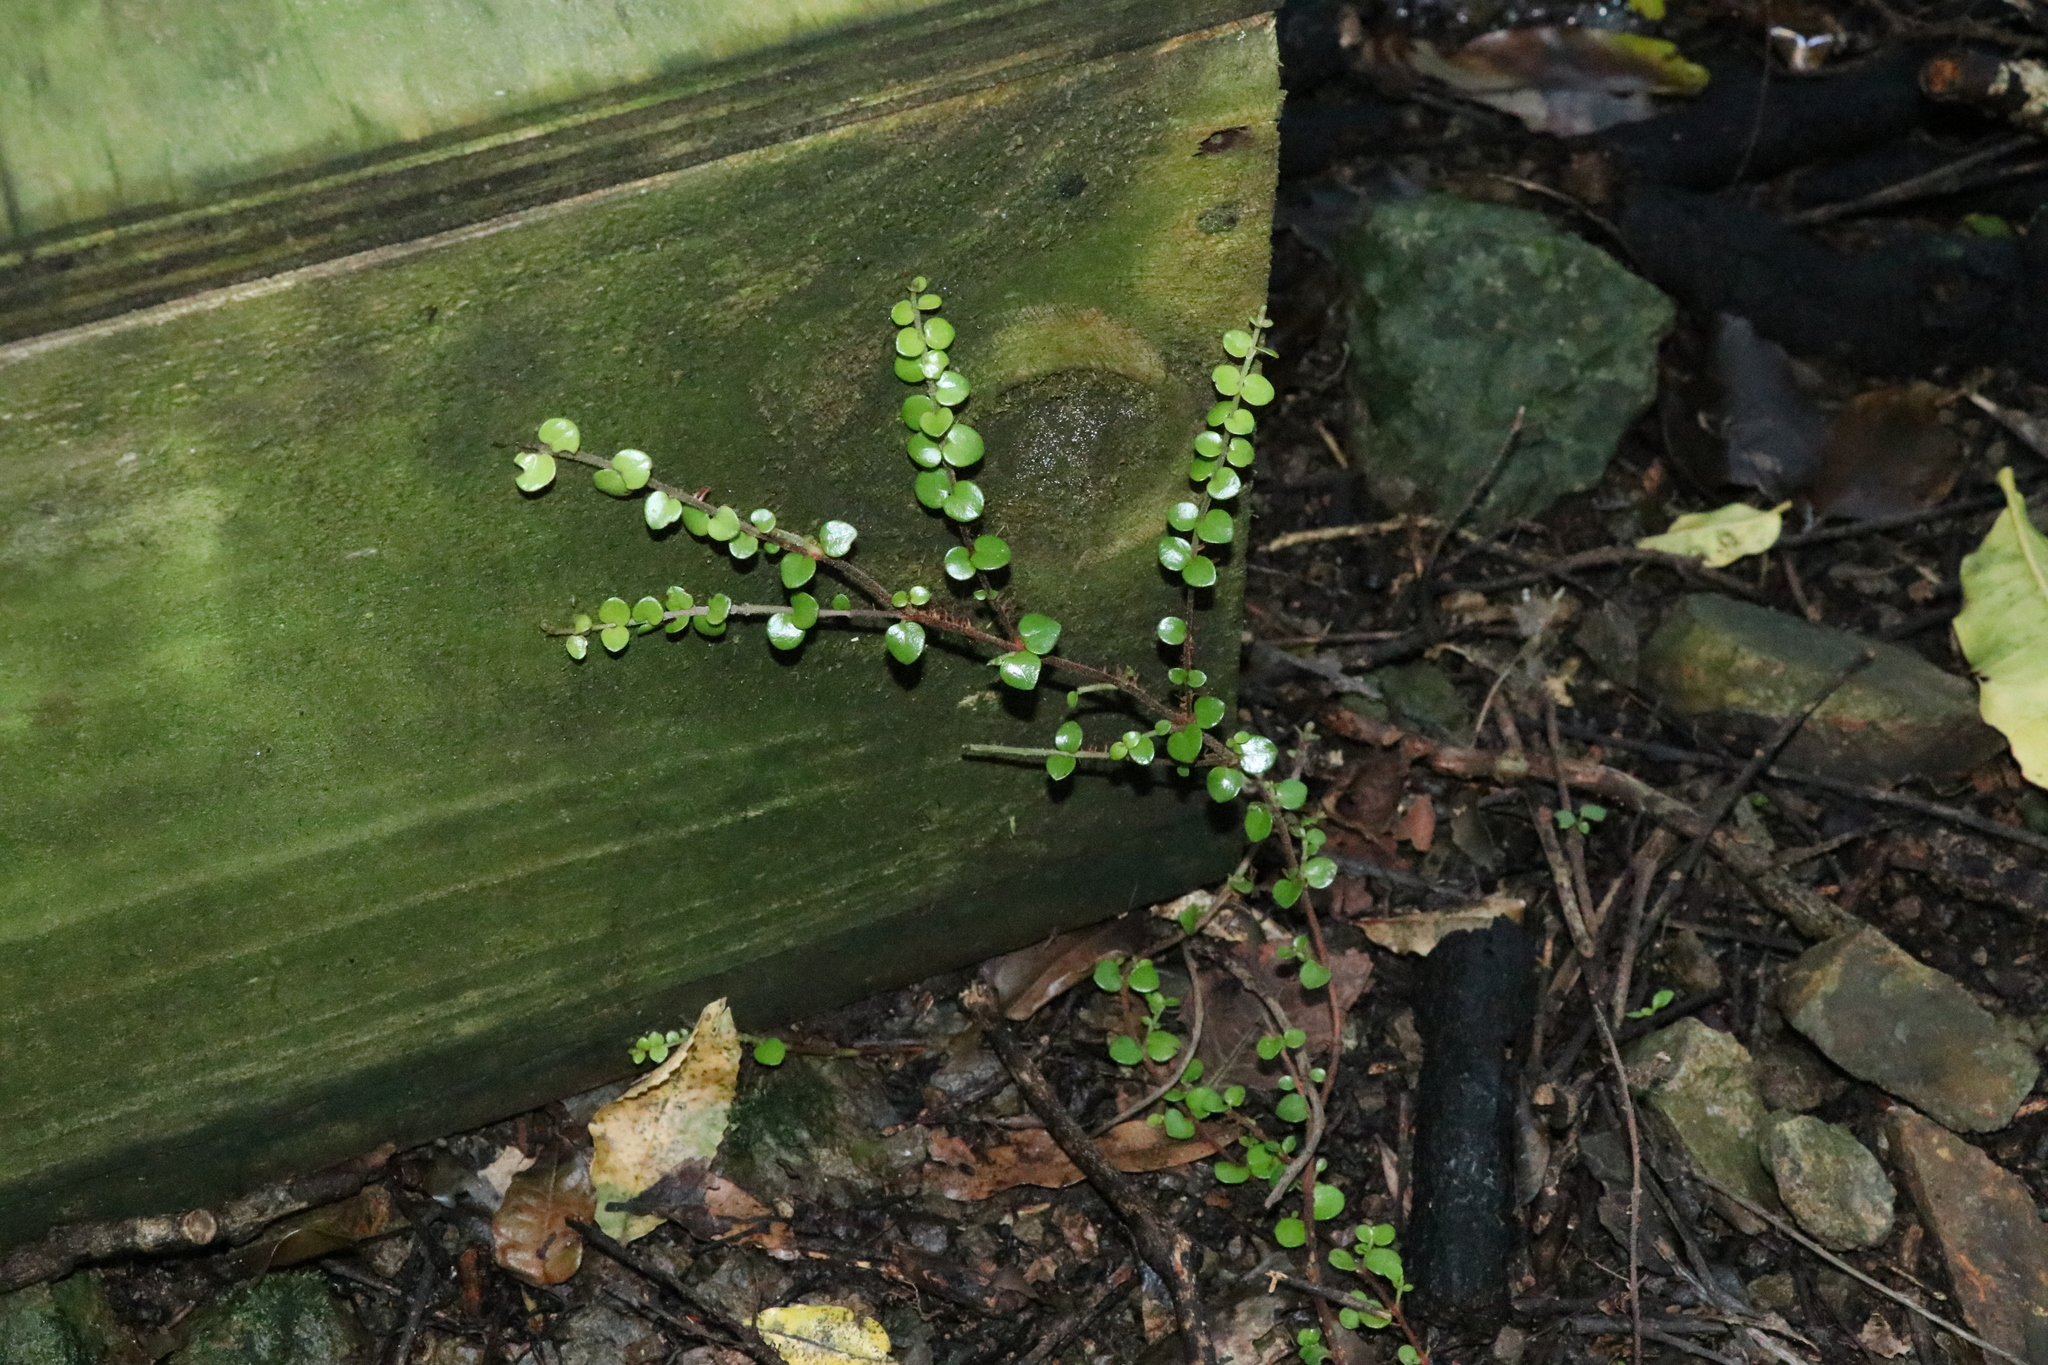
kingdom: Plantae
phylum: Tracheophyta
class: Magnoliopsida
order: Myrtales
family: Myrtaceae
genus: Metrosideros
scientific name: Metrosideros perforata
